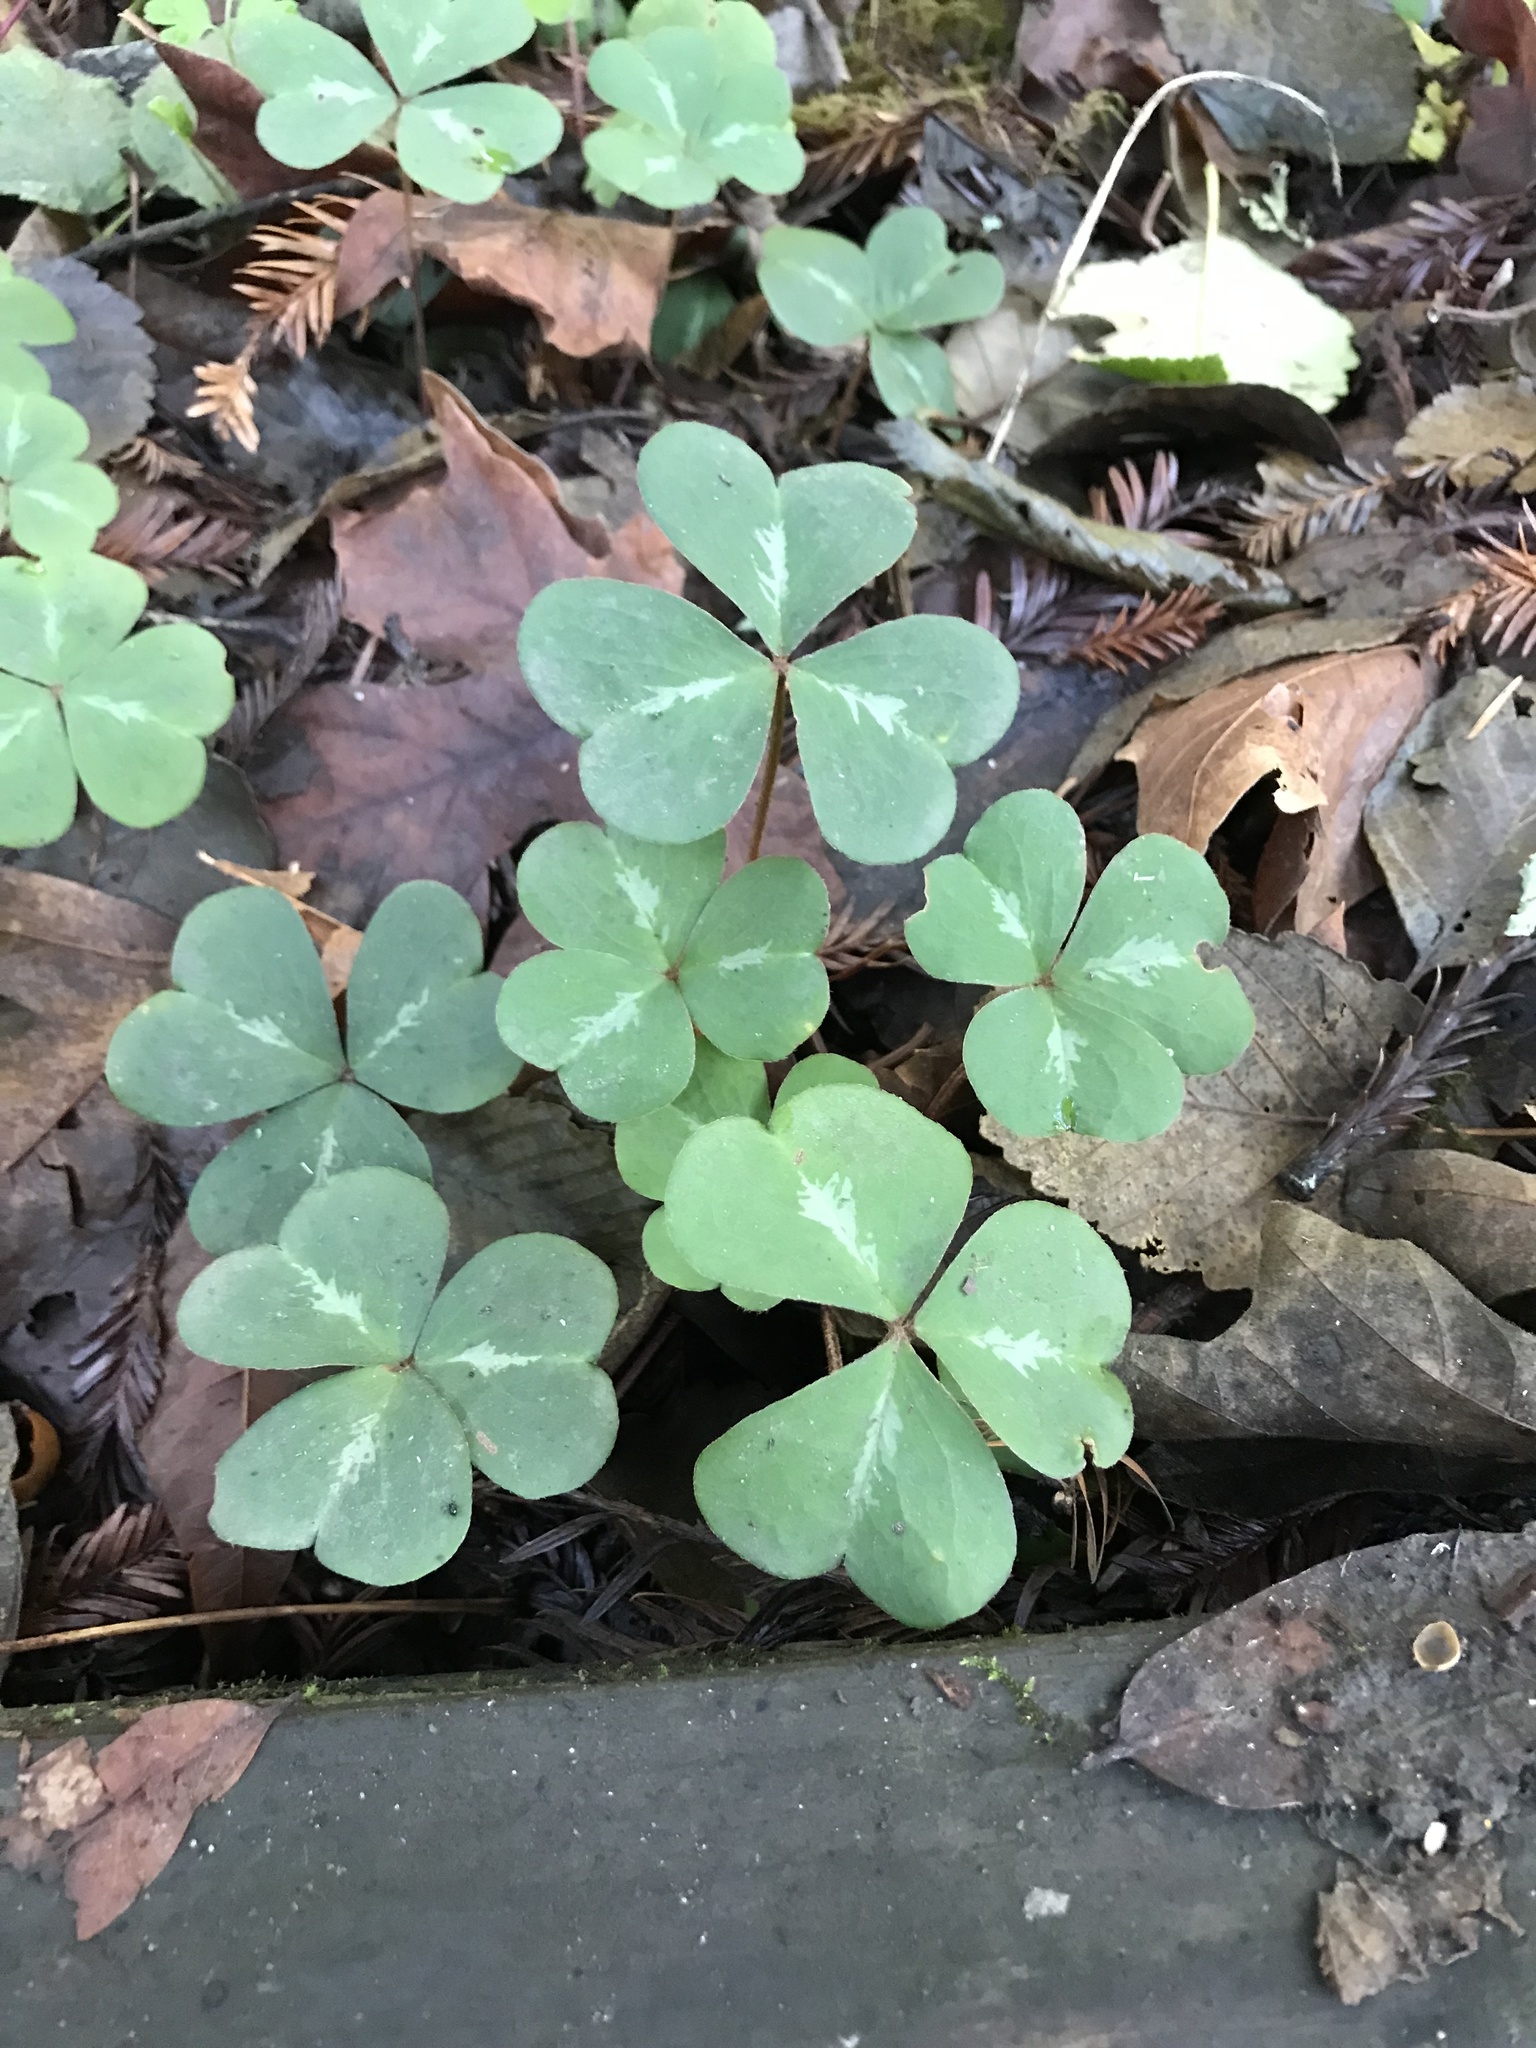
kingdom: Plantae
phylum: Tracheophyta
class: Magnoliopsida
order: Oxalidales
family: Oxalidaceae
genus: Oxalis
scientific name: Oxalis oregana
